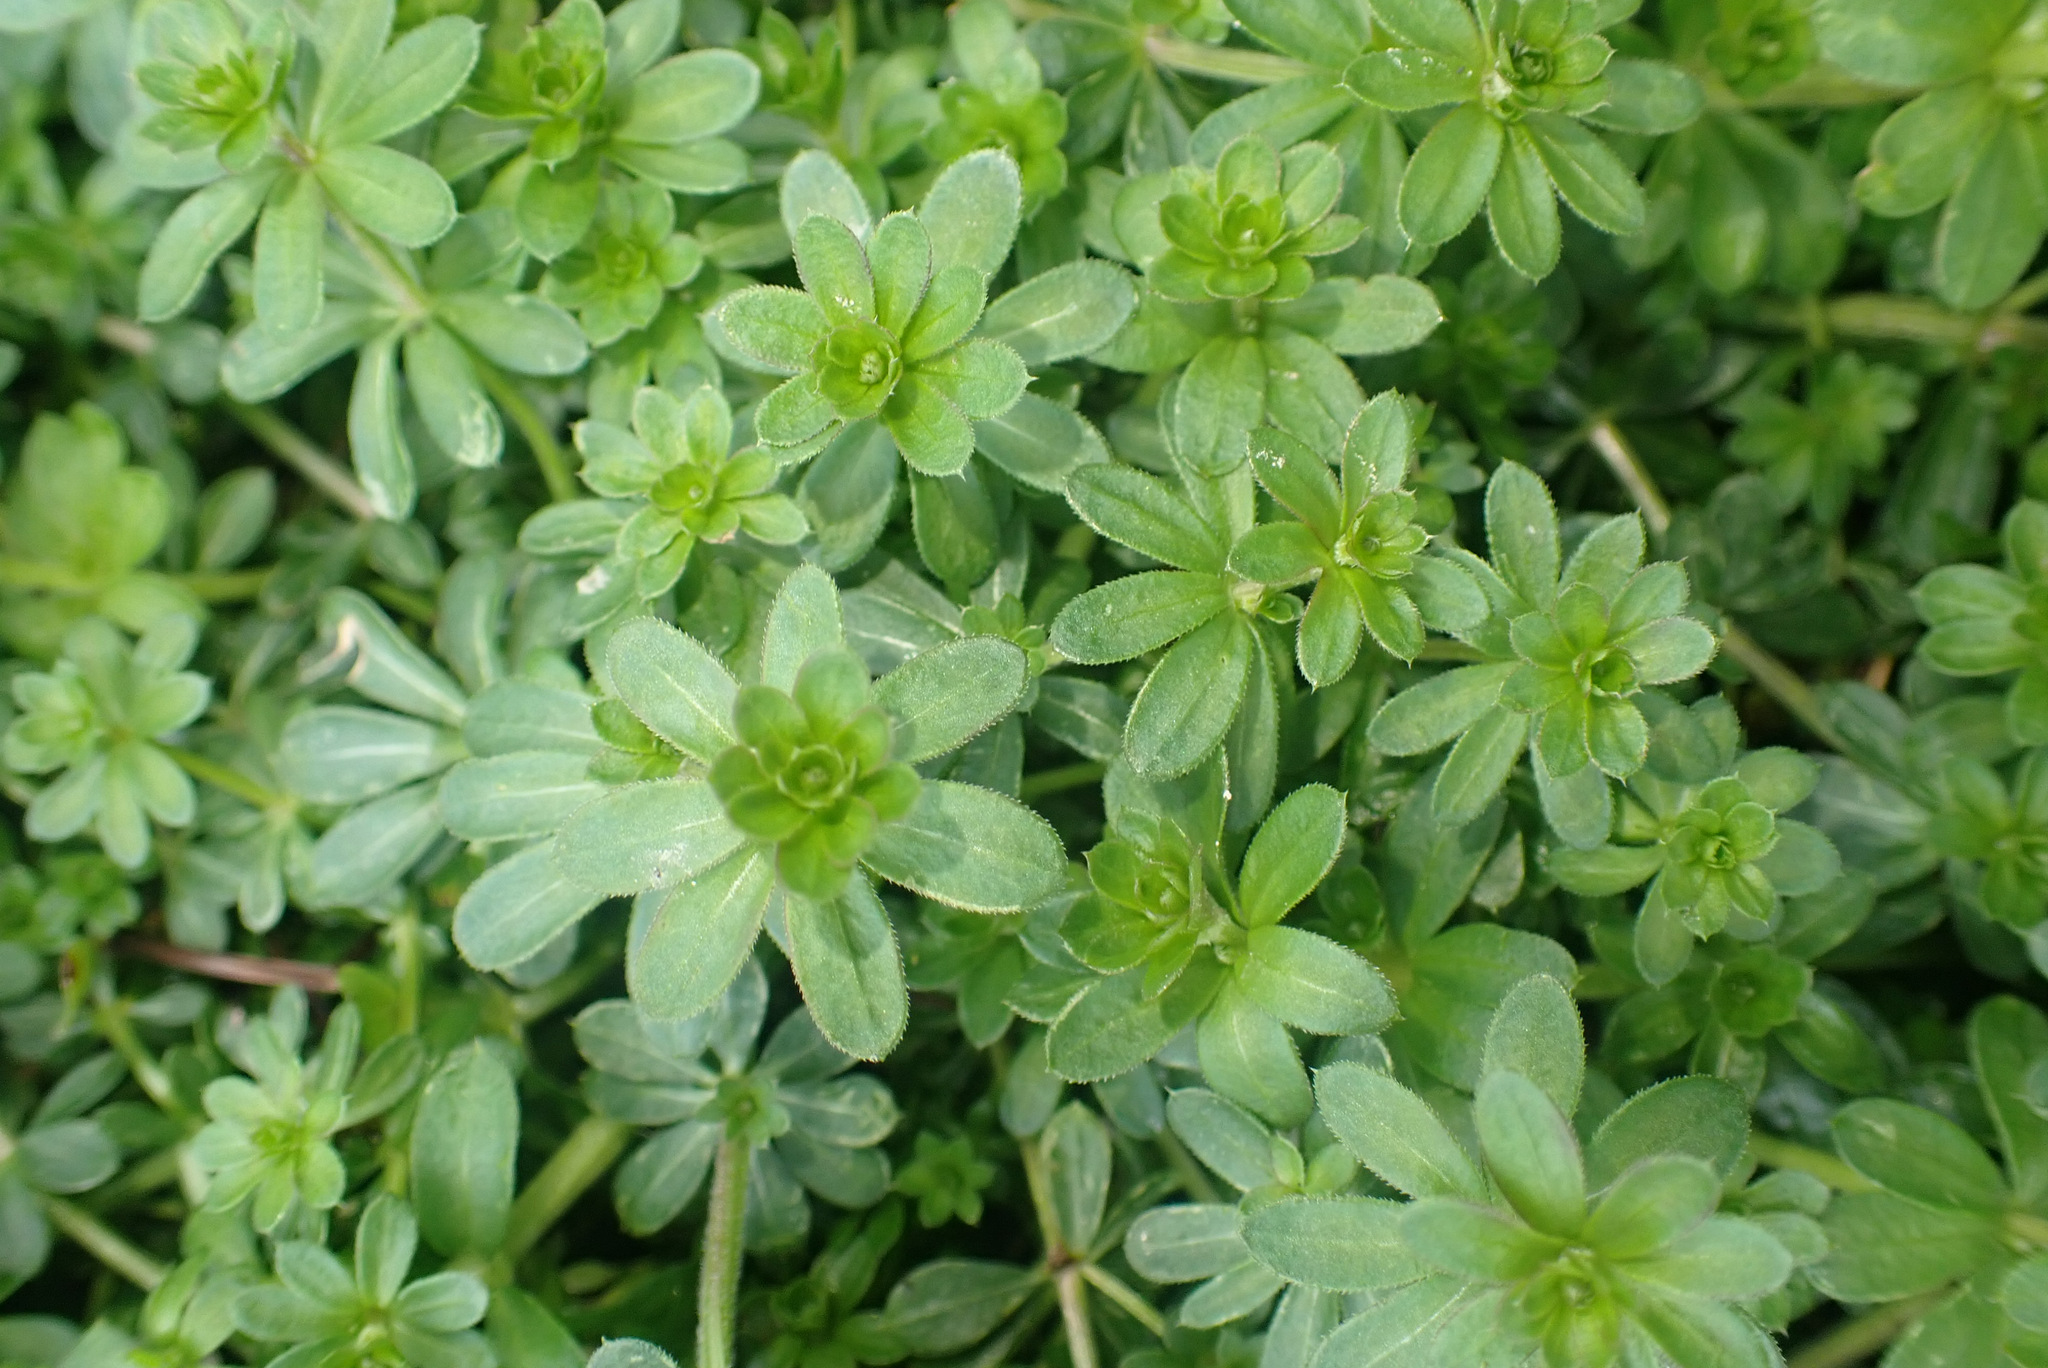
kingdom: Plantae
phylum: Tracheophyta
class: Magnoliopsida
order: Gentianales
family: Rubiaceae
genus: Galium
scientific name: Galium mollugo
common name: Hedge bedstraw
